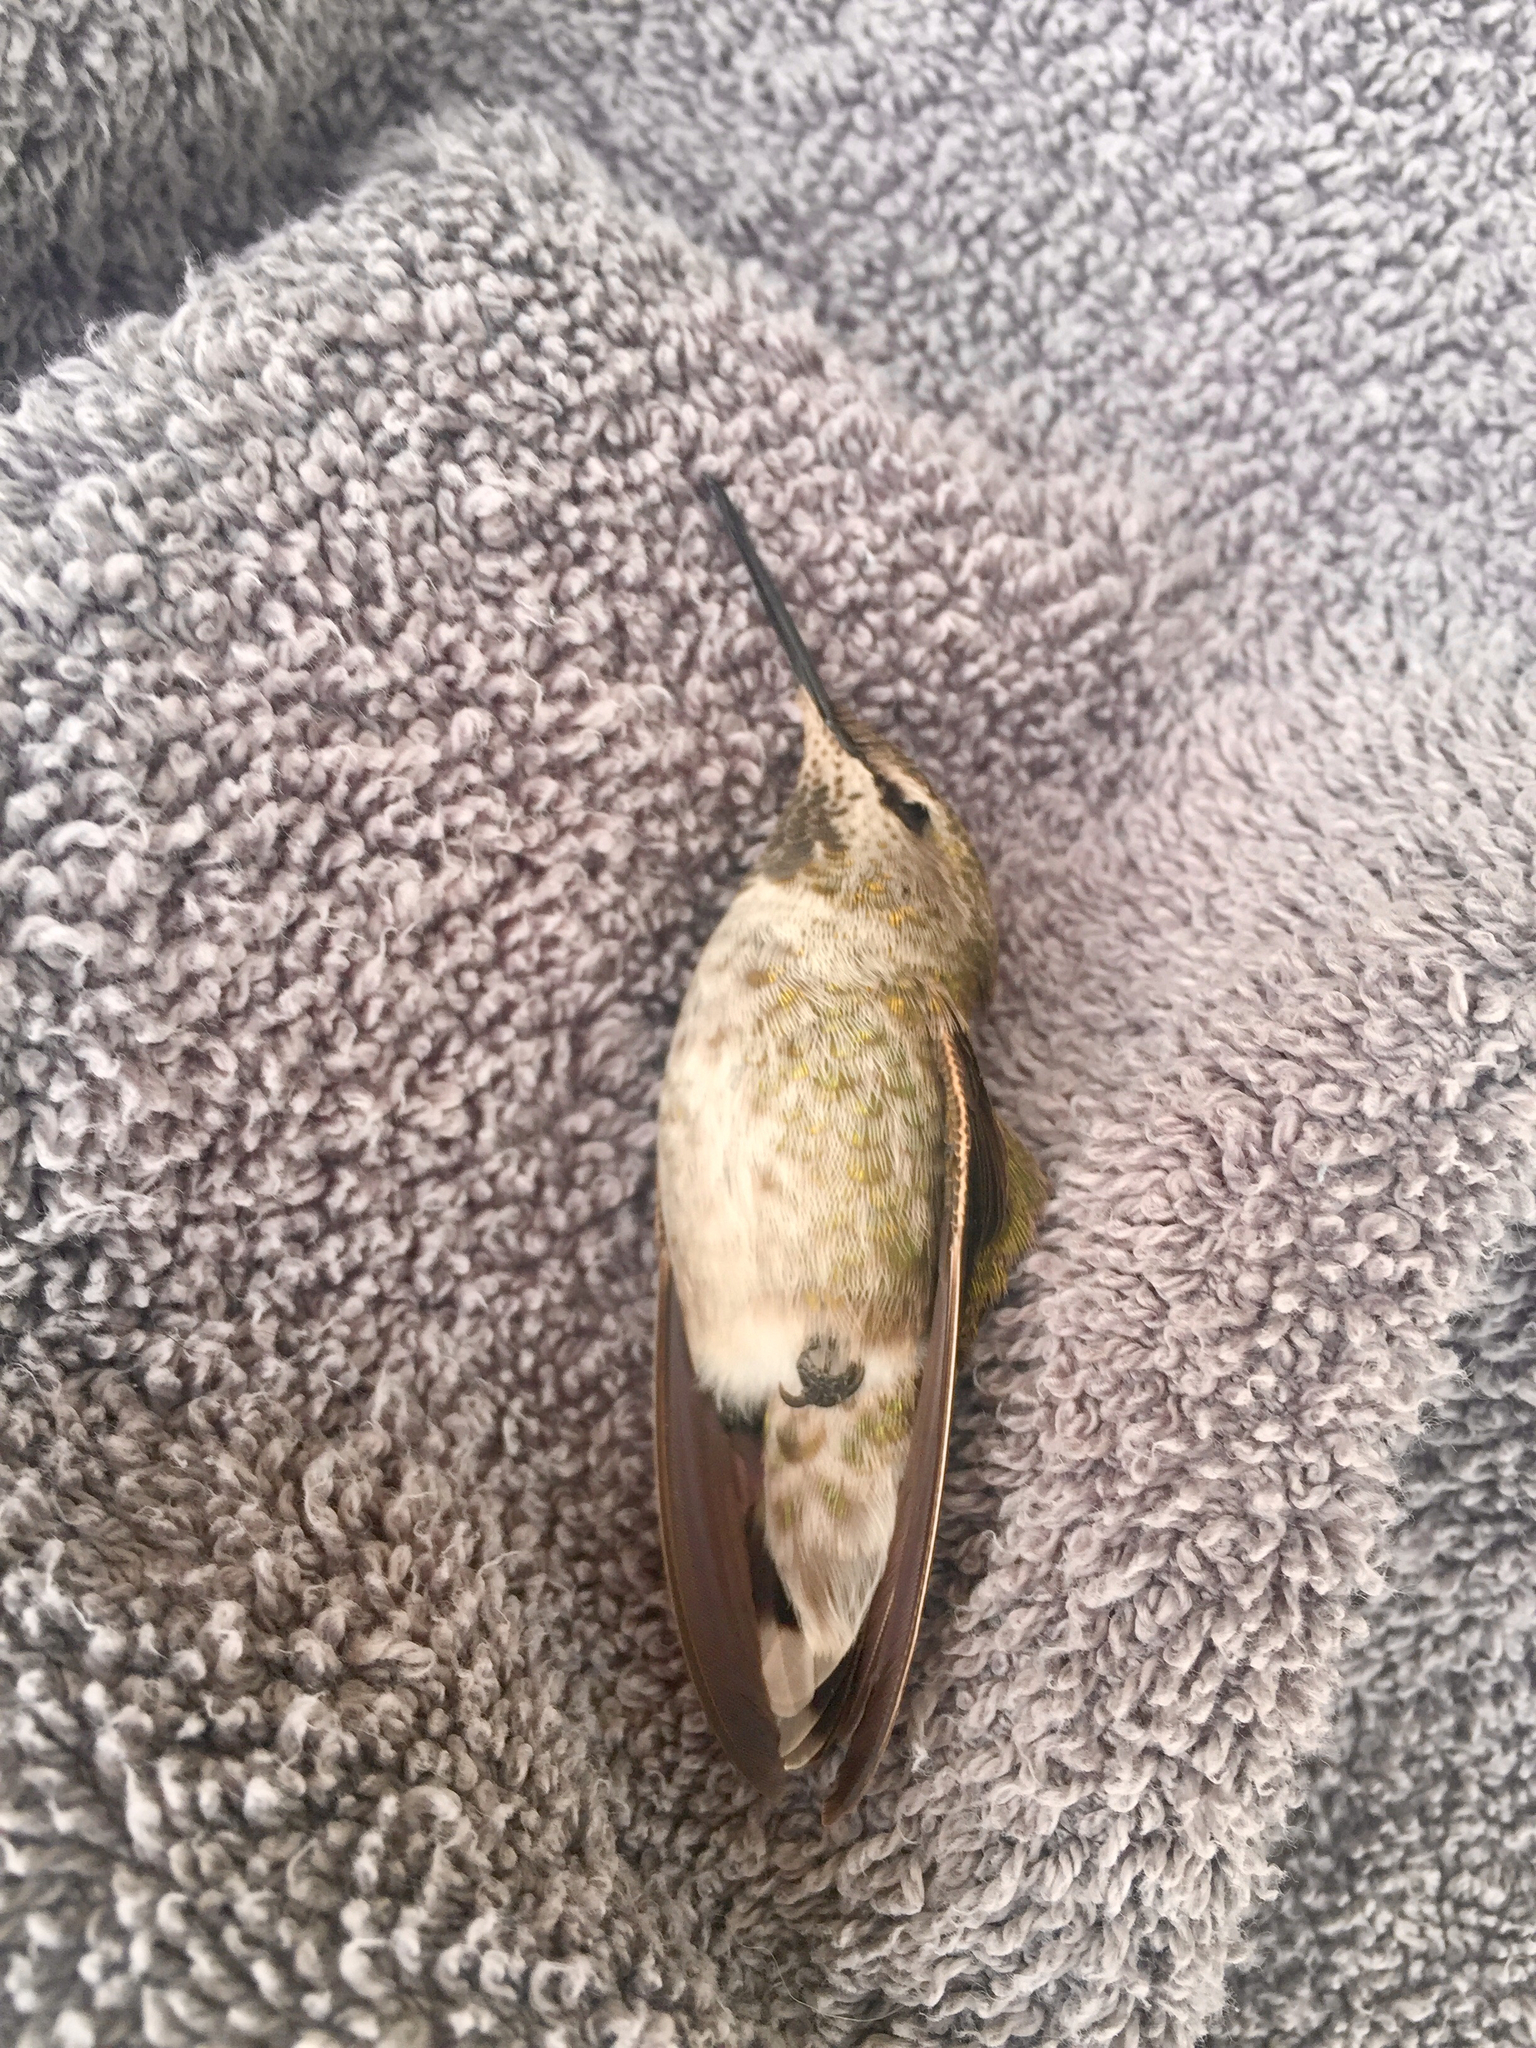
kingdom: Animalia
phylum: Chordata
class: Aves
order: Apodiformes
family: Trochilidae
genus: Calypte
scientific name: Calypte anna
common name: Anna's hummingbird
